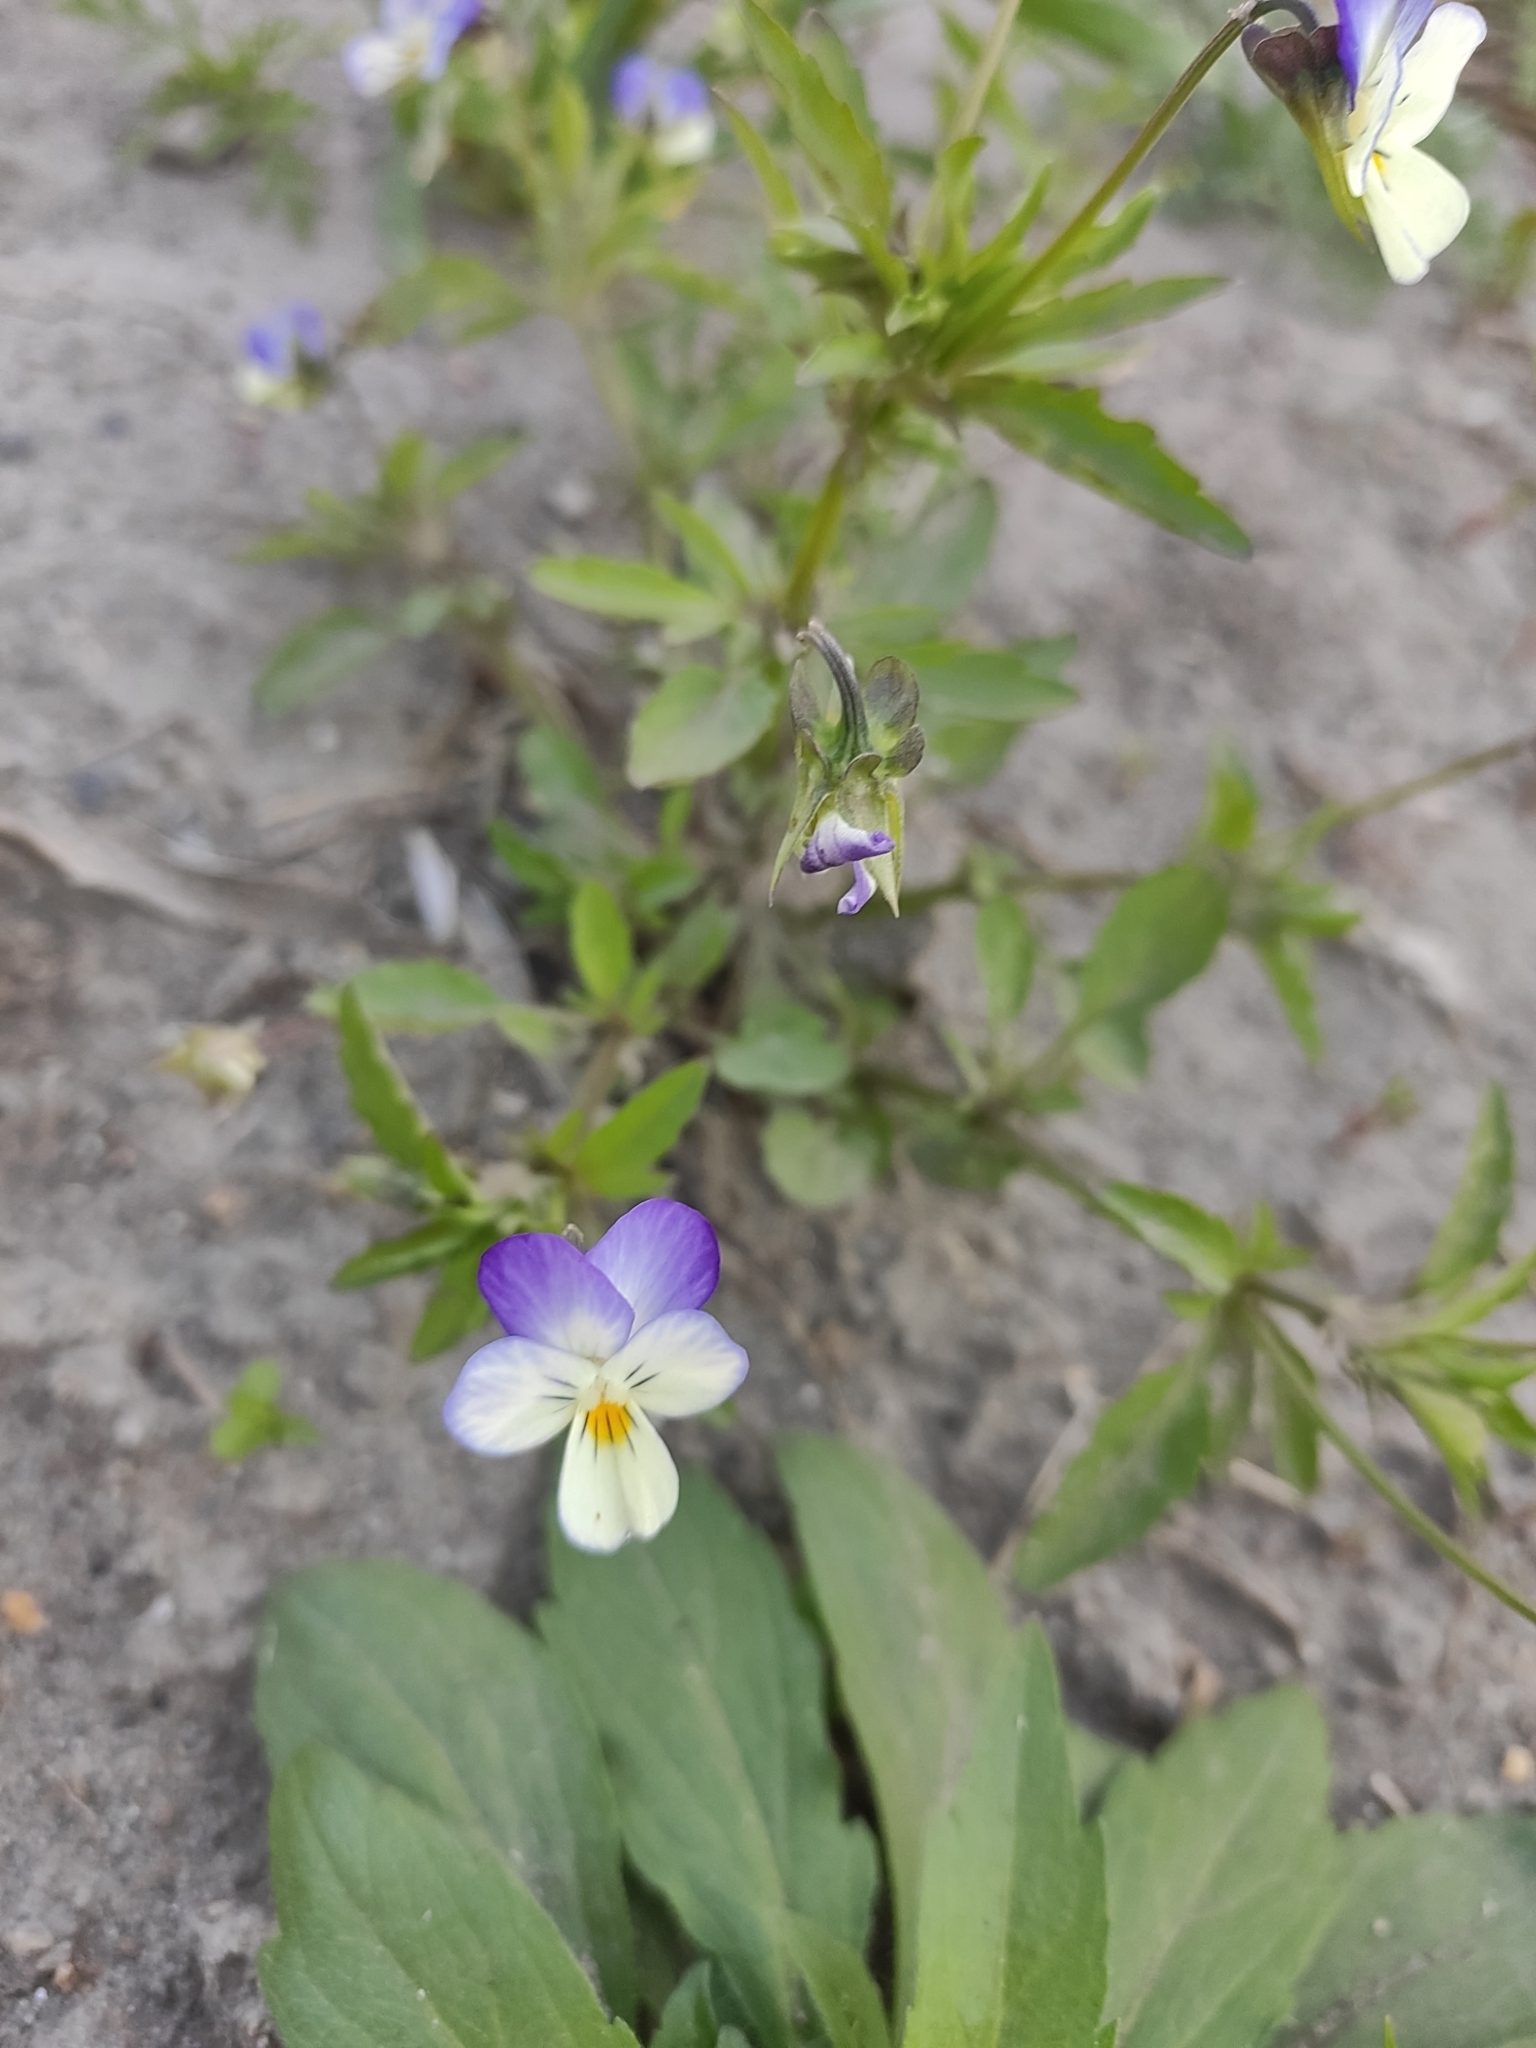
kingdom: Plantae
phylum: Tracheophyta
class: Magnoliopsida
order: Malpighiales
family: Violaceae
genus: Viola
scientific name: Viola tricolor
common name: Pansy
